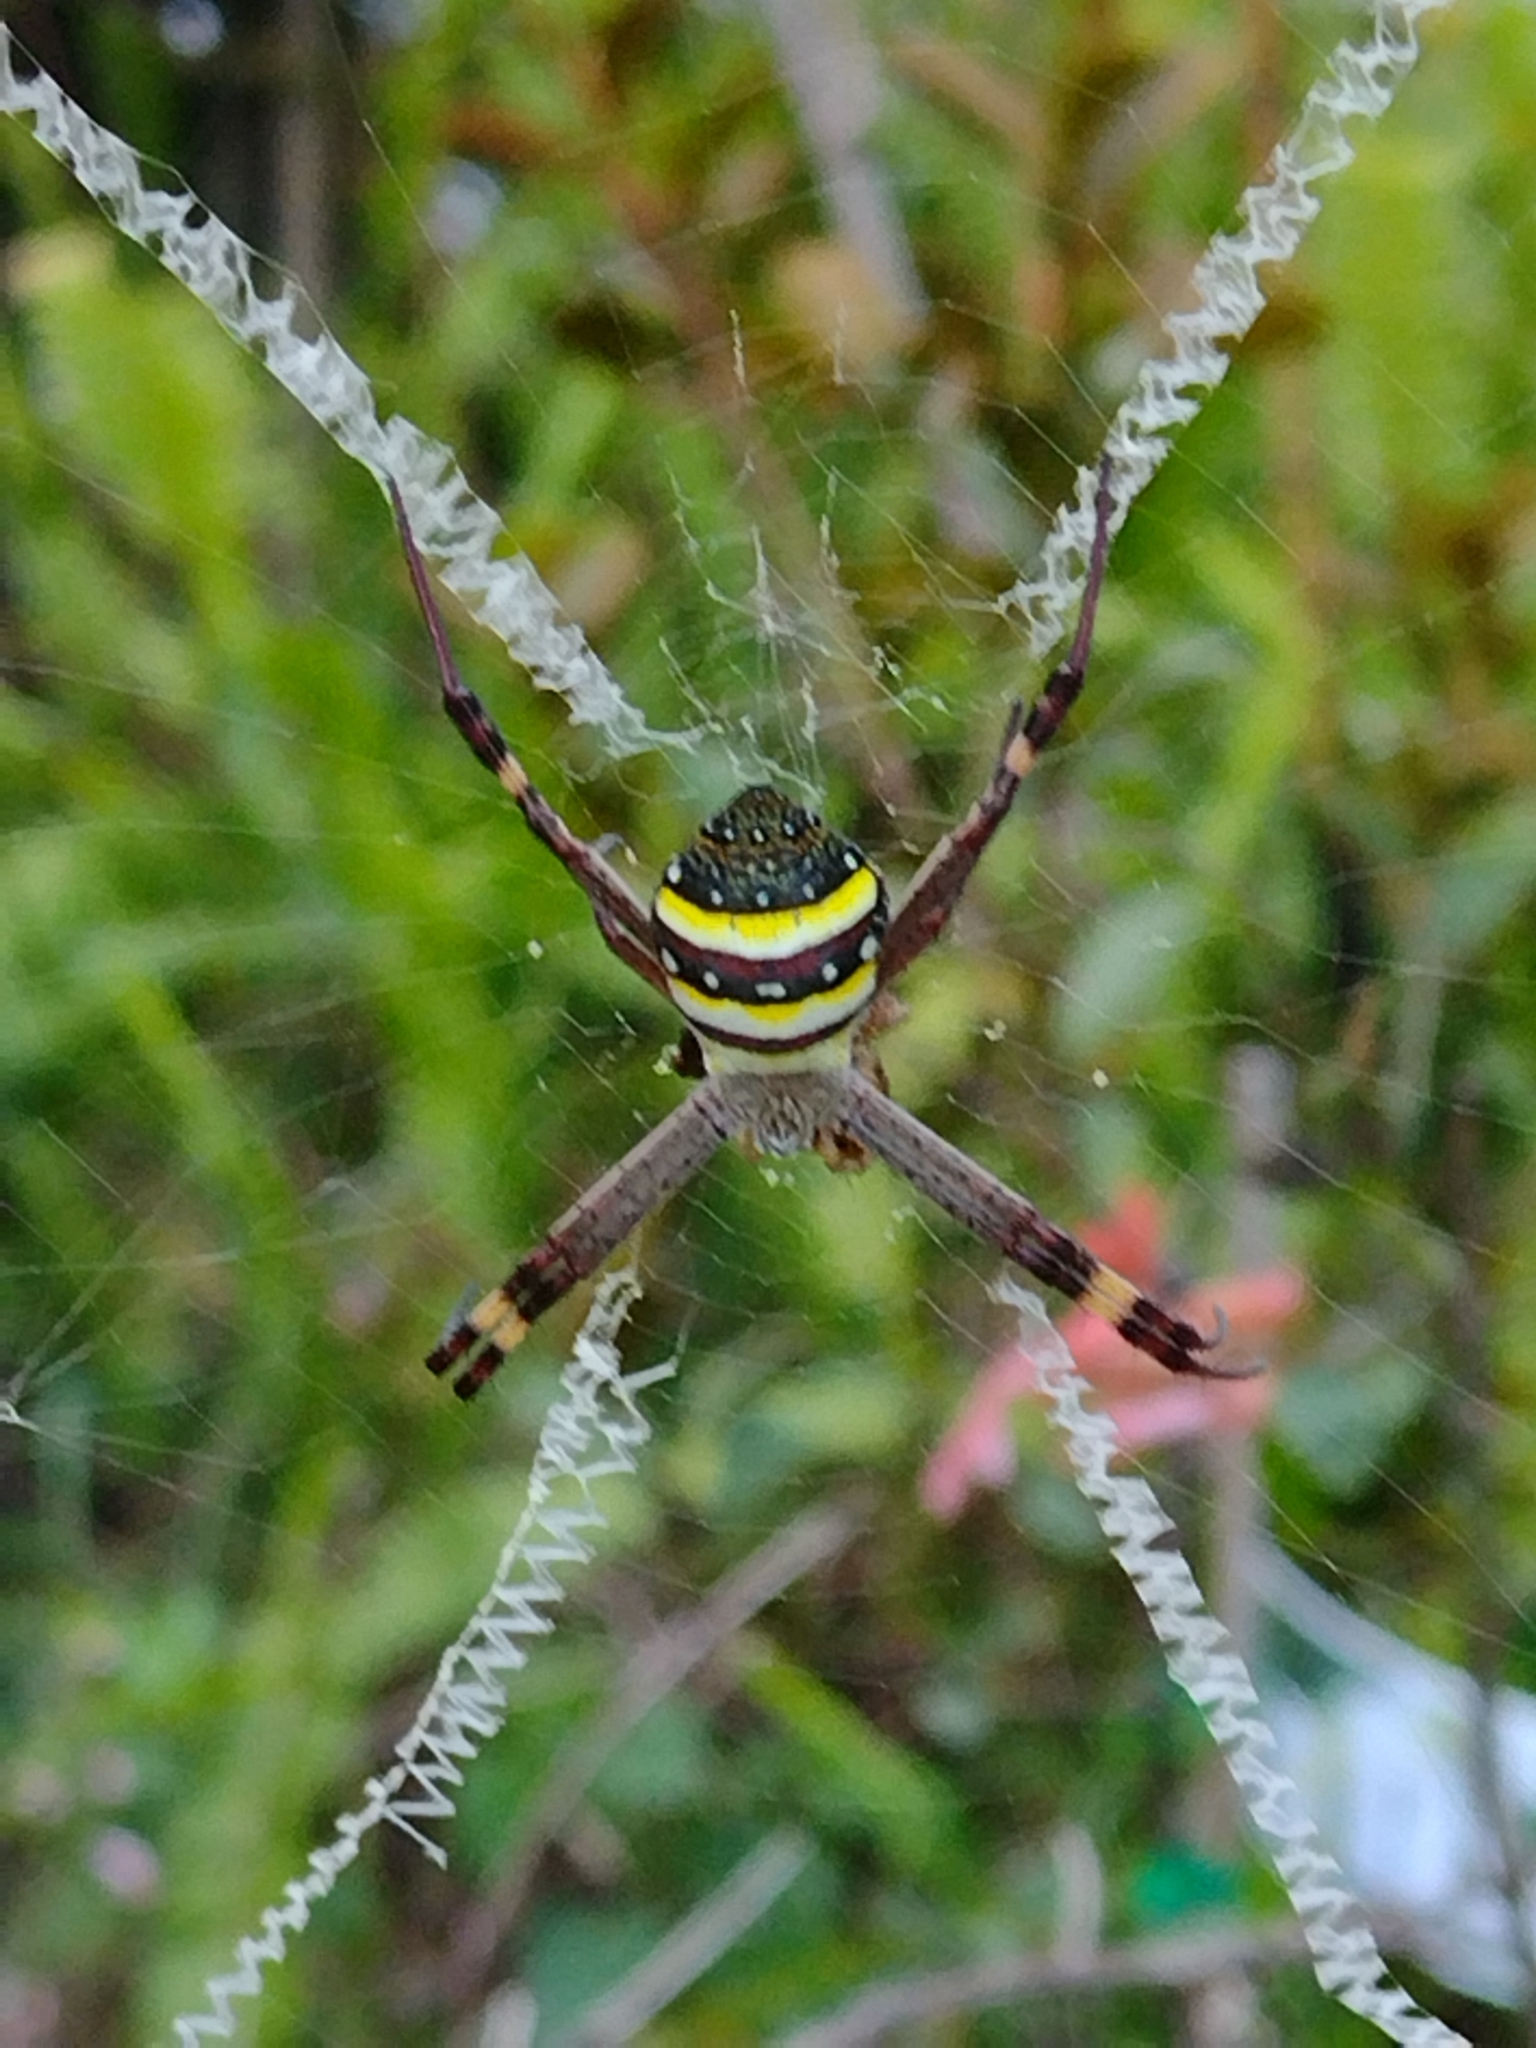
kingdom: Animalia
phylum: Arthropoda
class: Arachnida
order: Araneae
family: Araneidae
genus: Argiope
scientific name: Argiope keyserlingi
